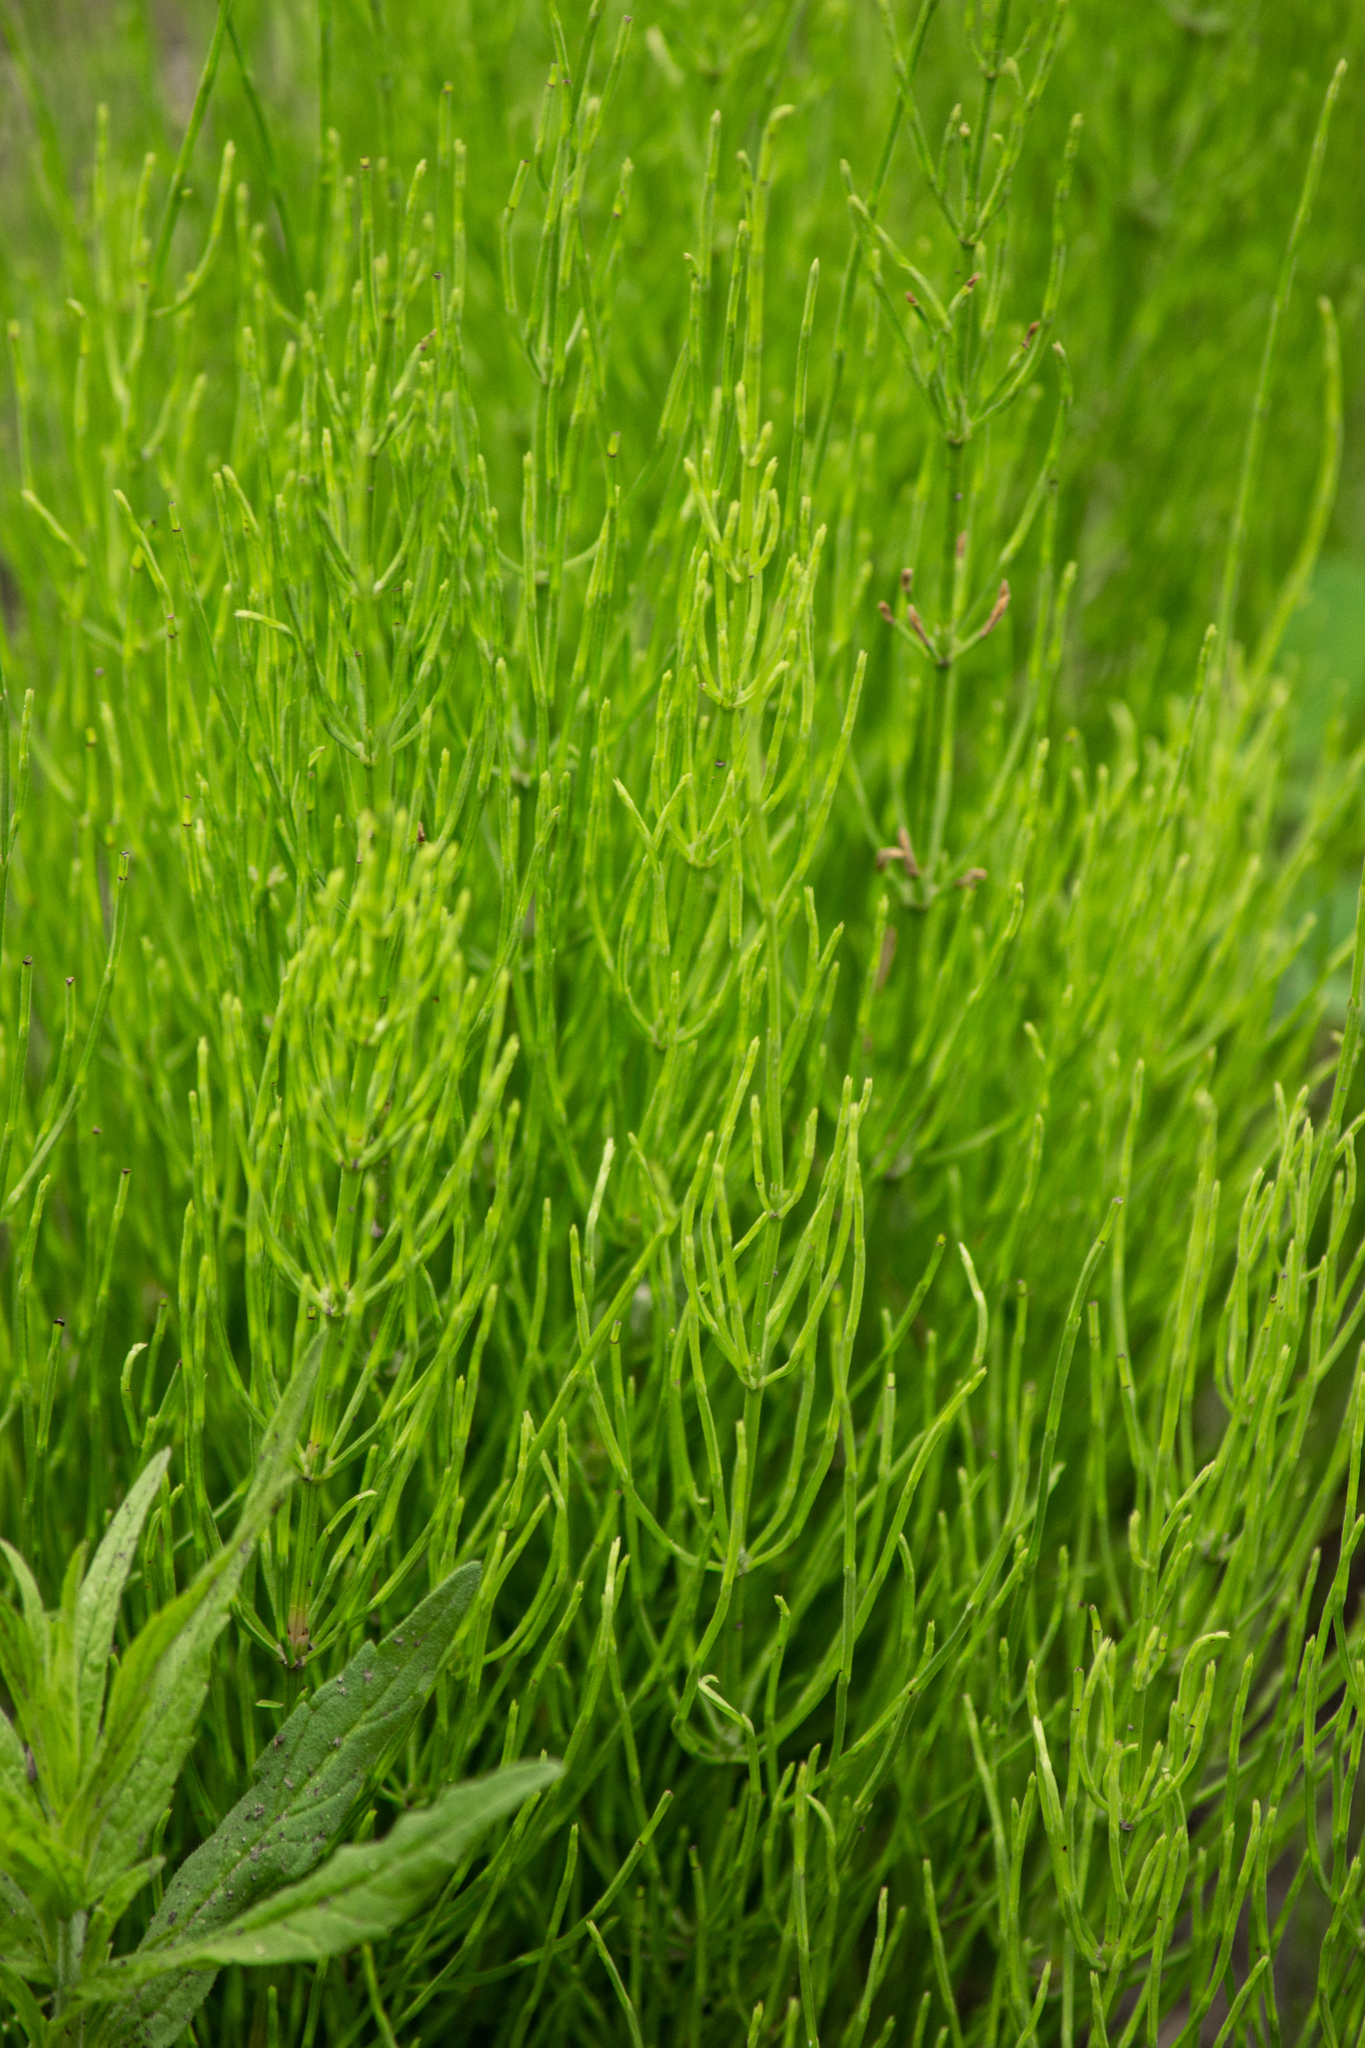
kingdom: Plantae
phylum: Tracheophyta
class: Polypodiopsida
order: Equisetales
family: Equisetaceae
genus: Equisetum
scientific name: Equisetum arvense
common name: Field horsetail
